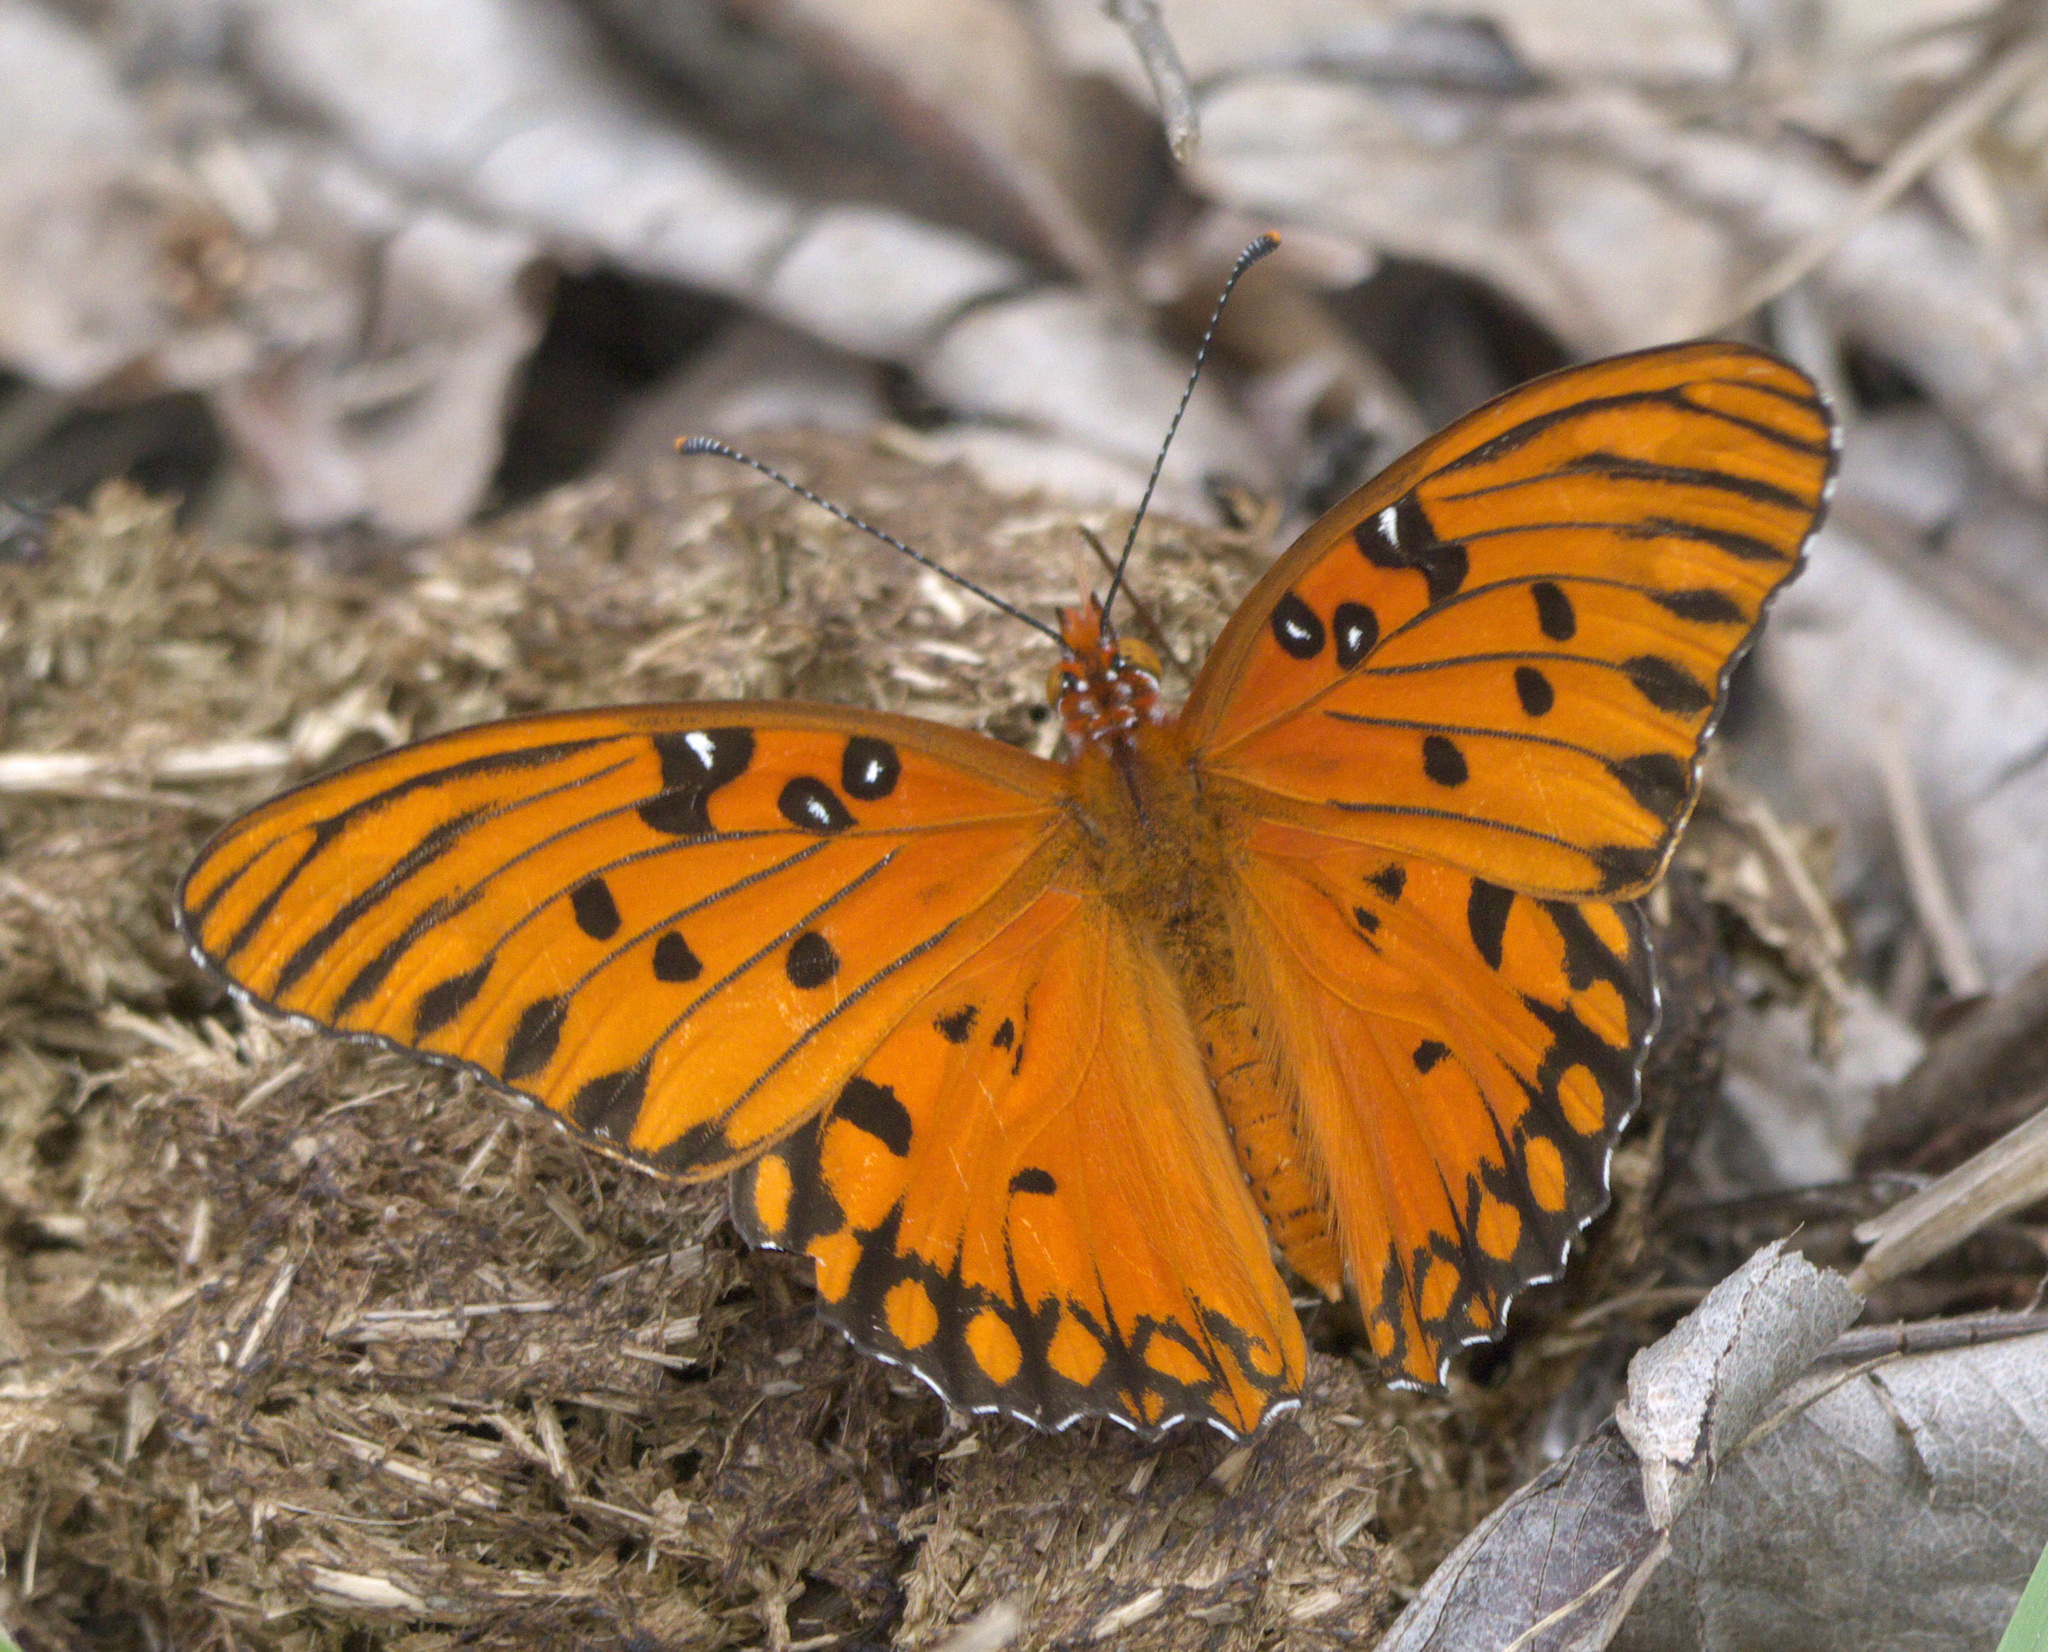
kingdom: Animalia
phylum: Arthropoda
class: Insecta
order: Lepidoptera
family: Nymphalidae
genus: Dione
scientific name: Dione vanillae
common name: Gulf fritillary
